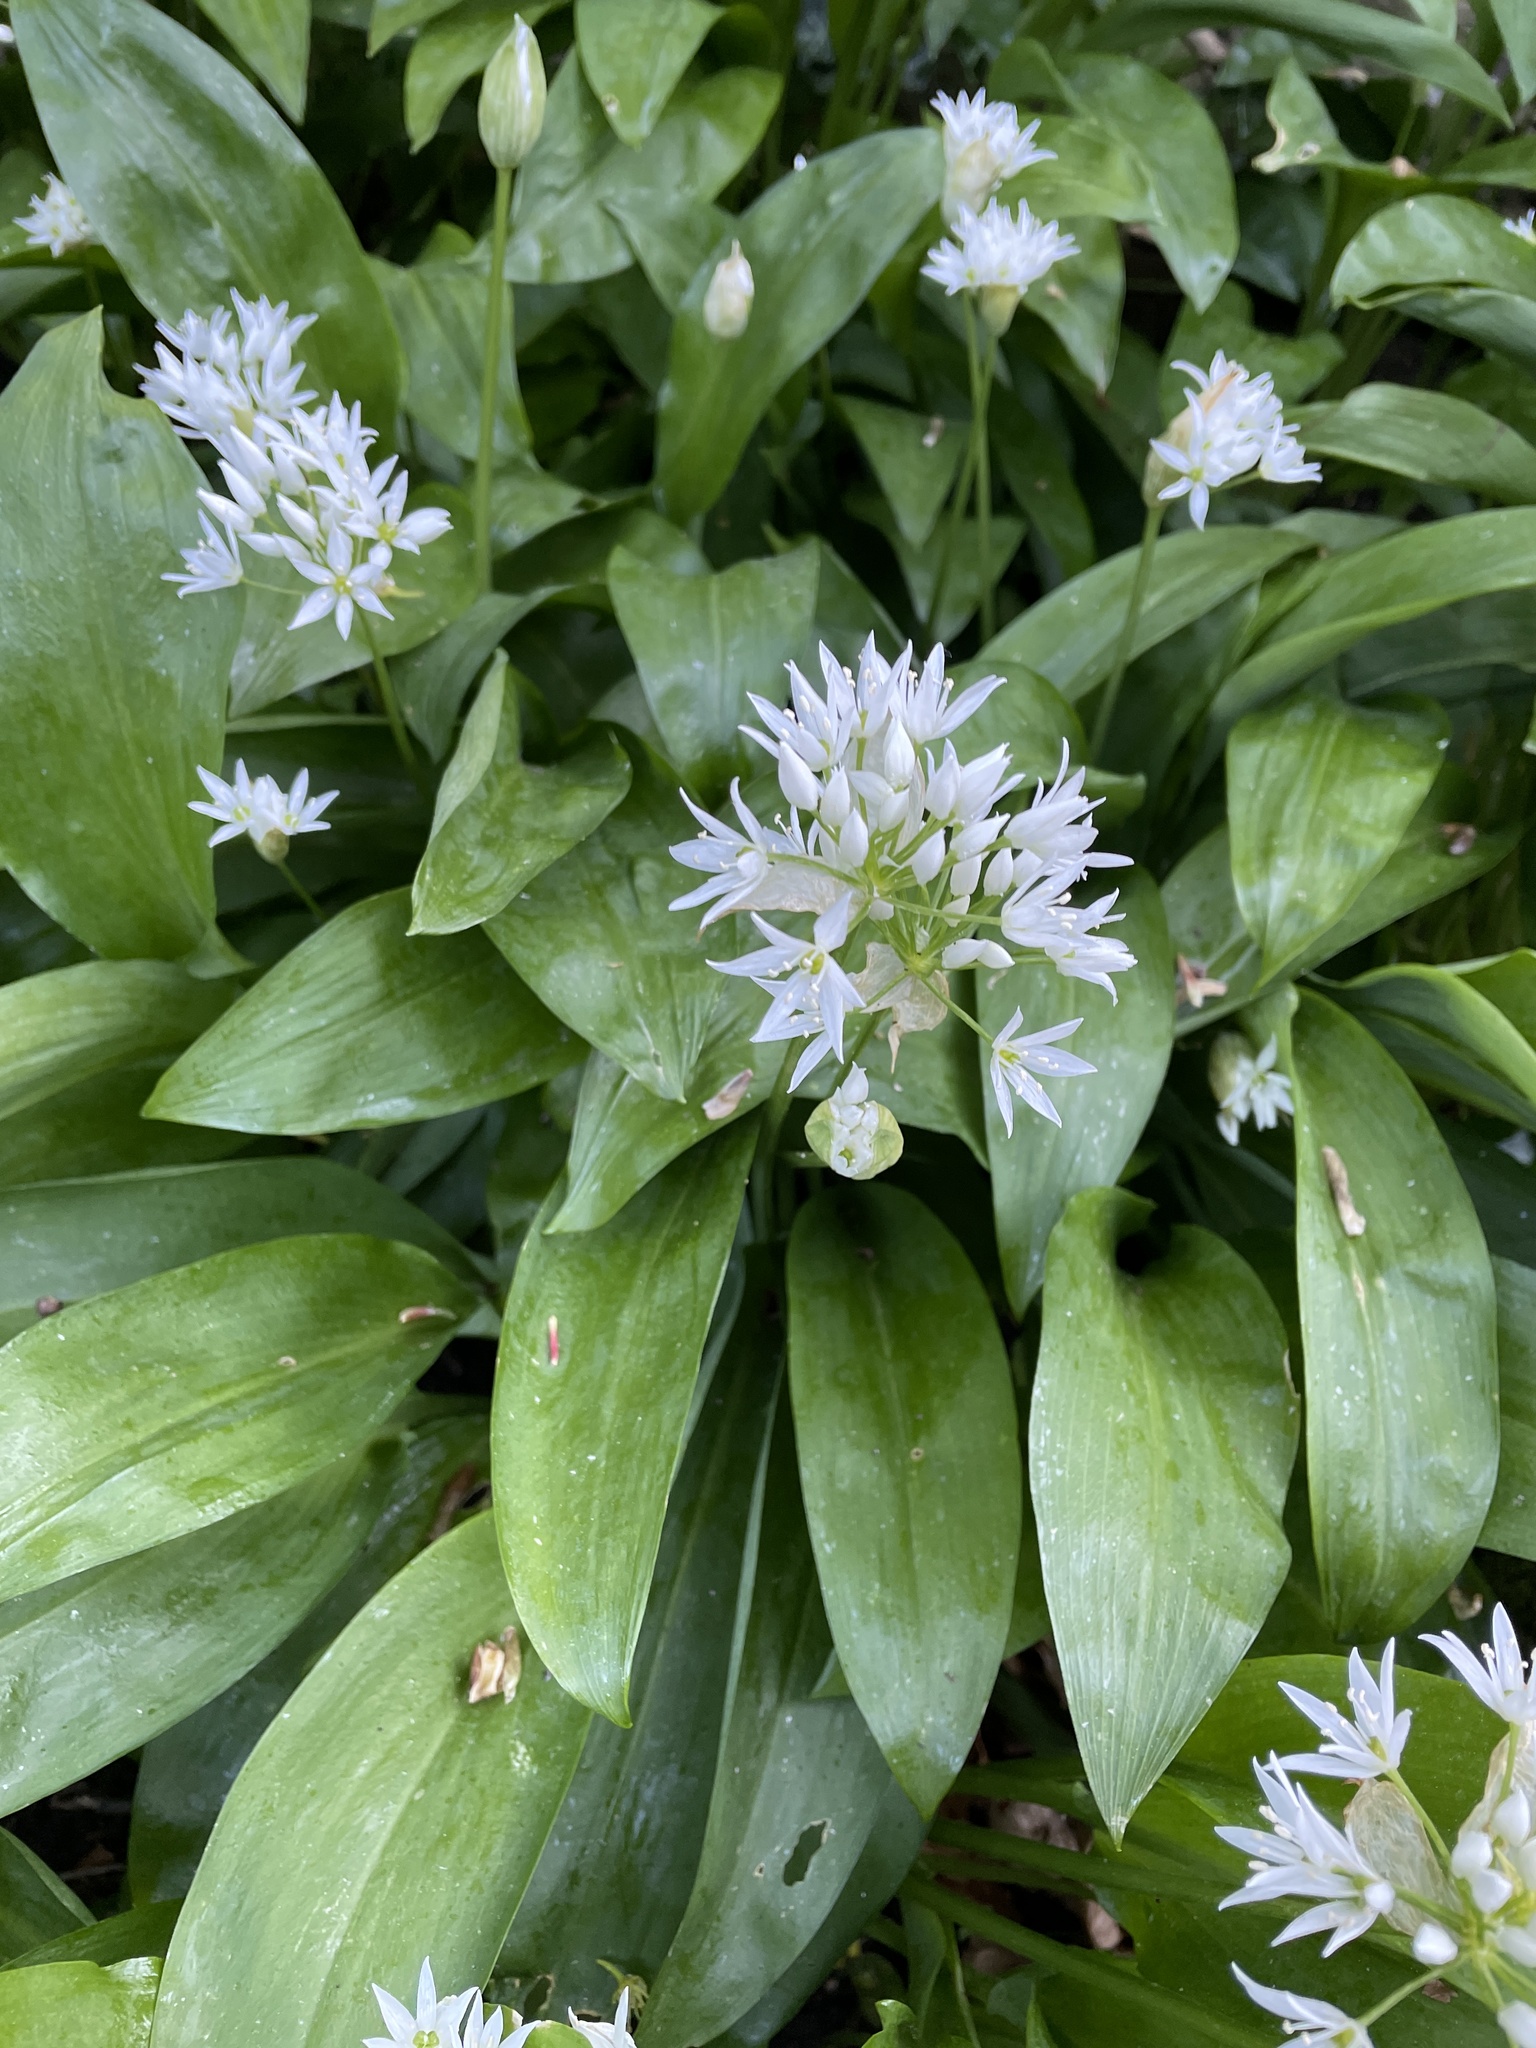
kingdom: Plantae
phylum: Tracheophyta
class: Liliopsida
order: Asparagales
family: Amaryllidaceae
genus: Allium
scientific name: Allium ursinum
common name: Ramsons
